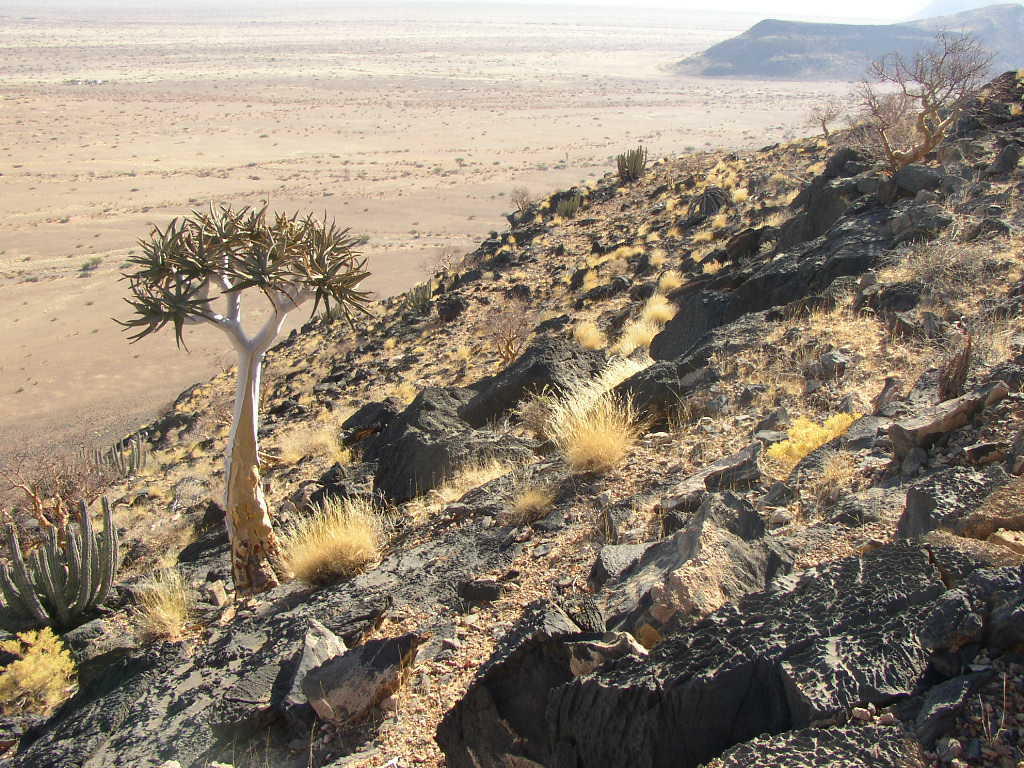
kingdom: Plantae
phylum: Tracheophyta
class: Liliopsida
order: Asparagales
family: Asphodelaceae
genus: Aloidendron
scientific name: Aloidendron dichotomum
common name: Quiver tree
